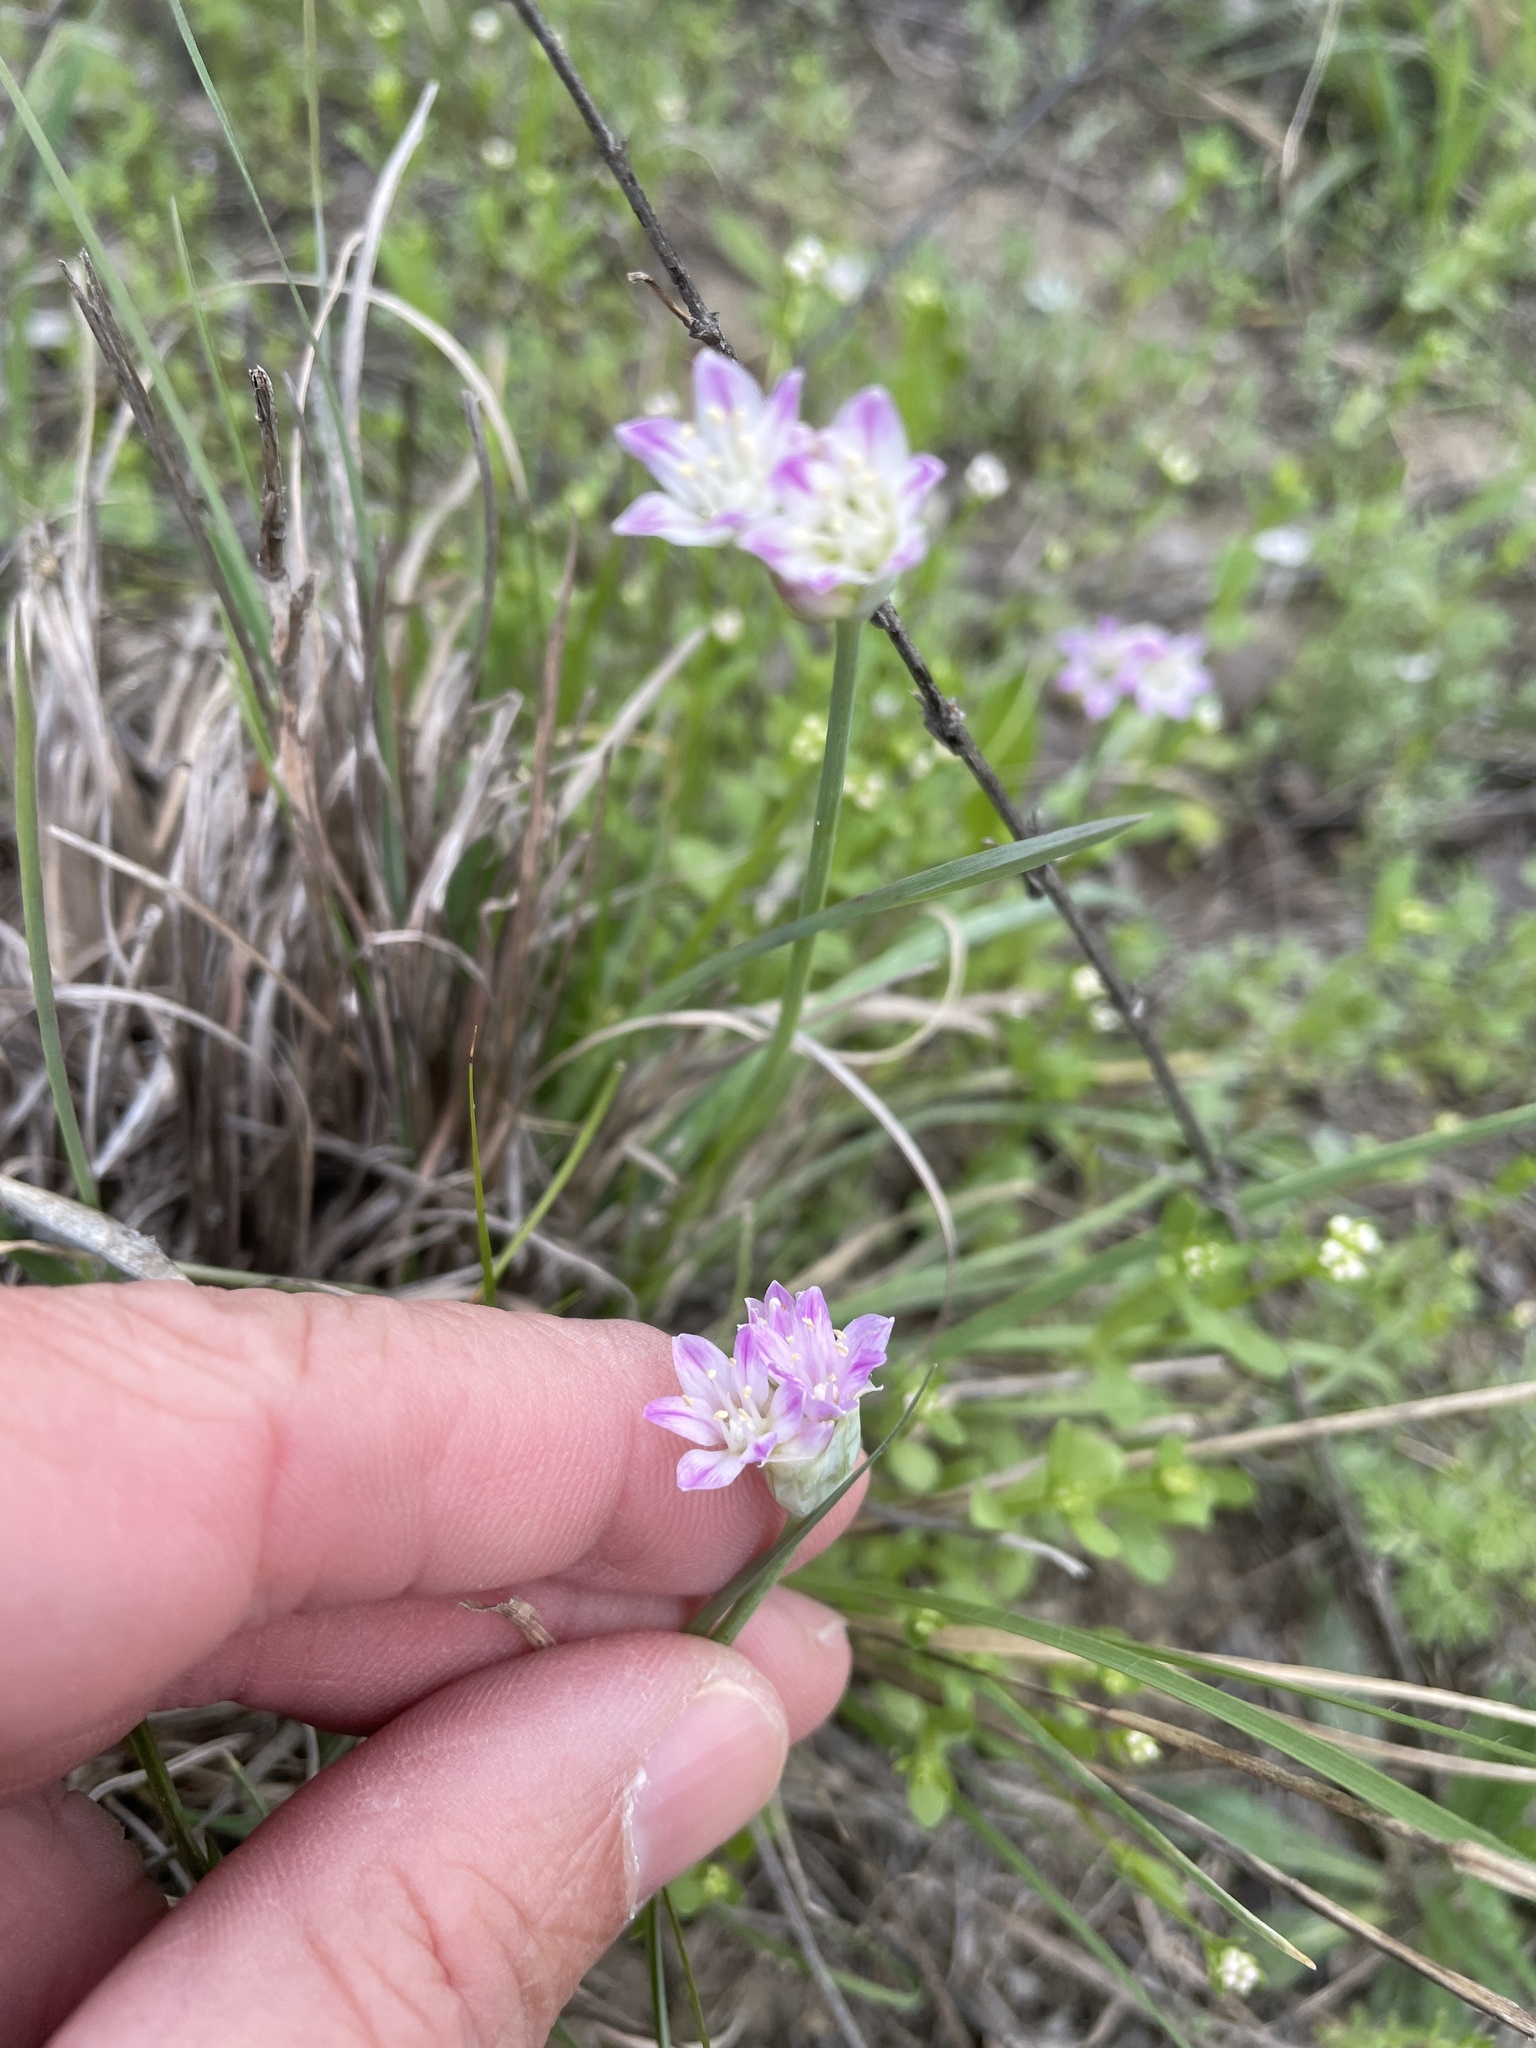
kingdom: Plantae
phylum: Tracheophyta
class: Liliopsida
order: Asparagales
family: Amaryllidaceae
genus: Allium
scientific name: Allium drummondii
